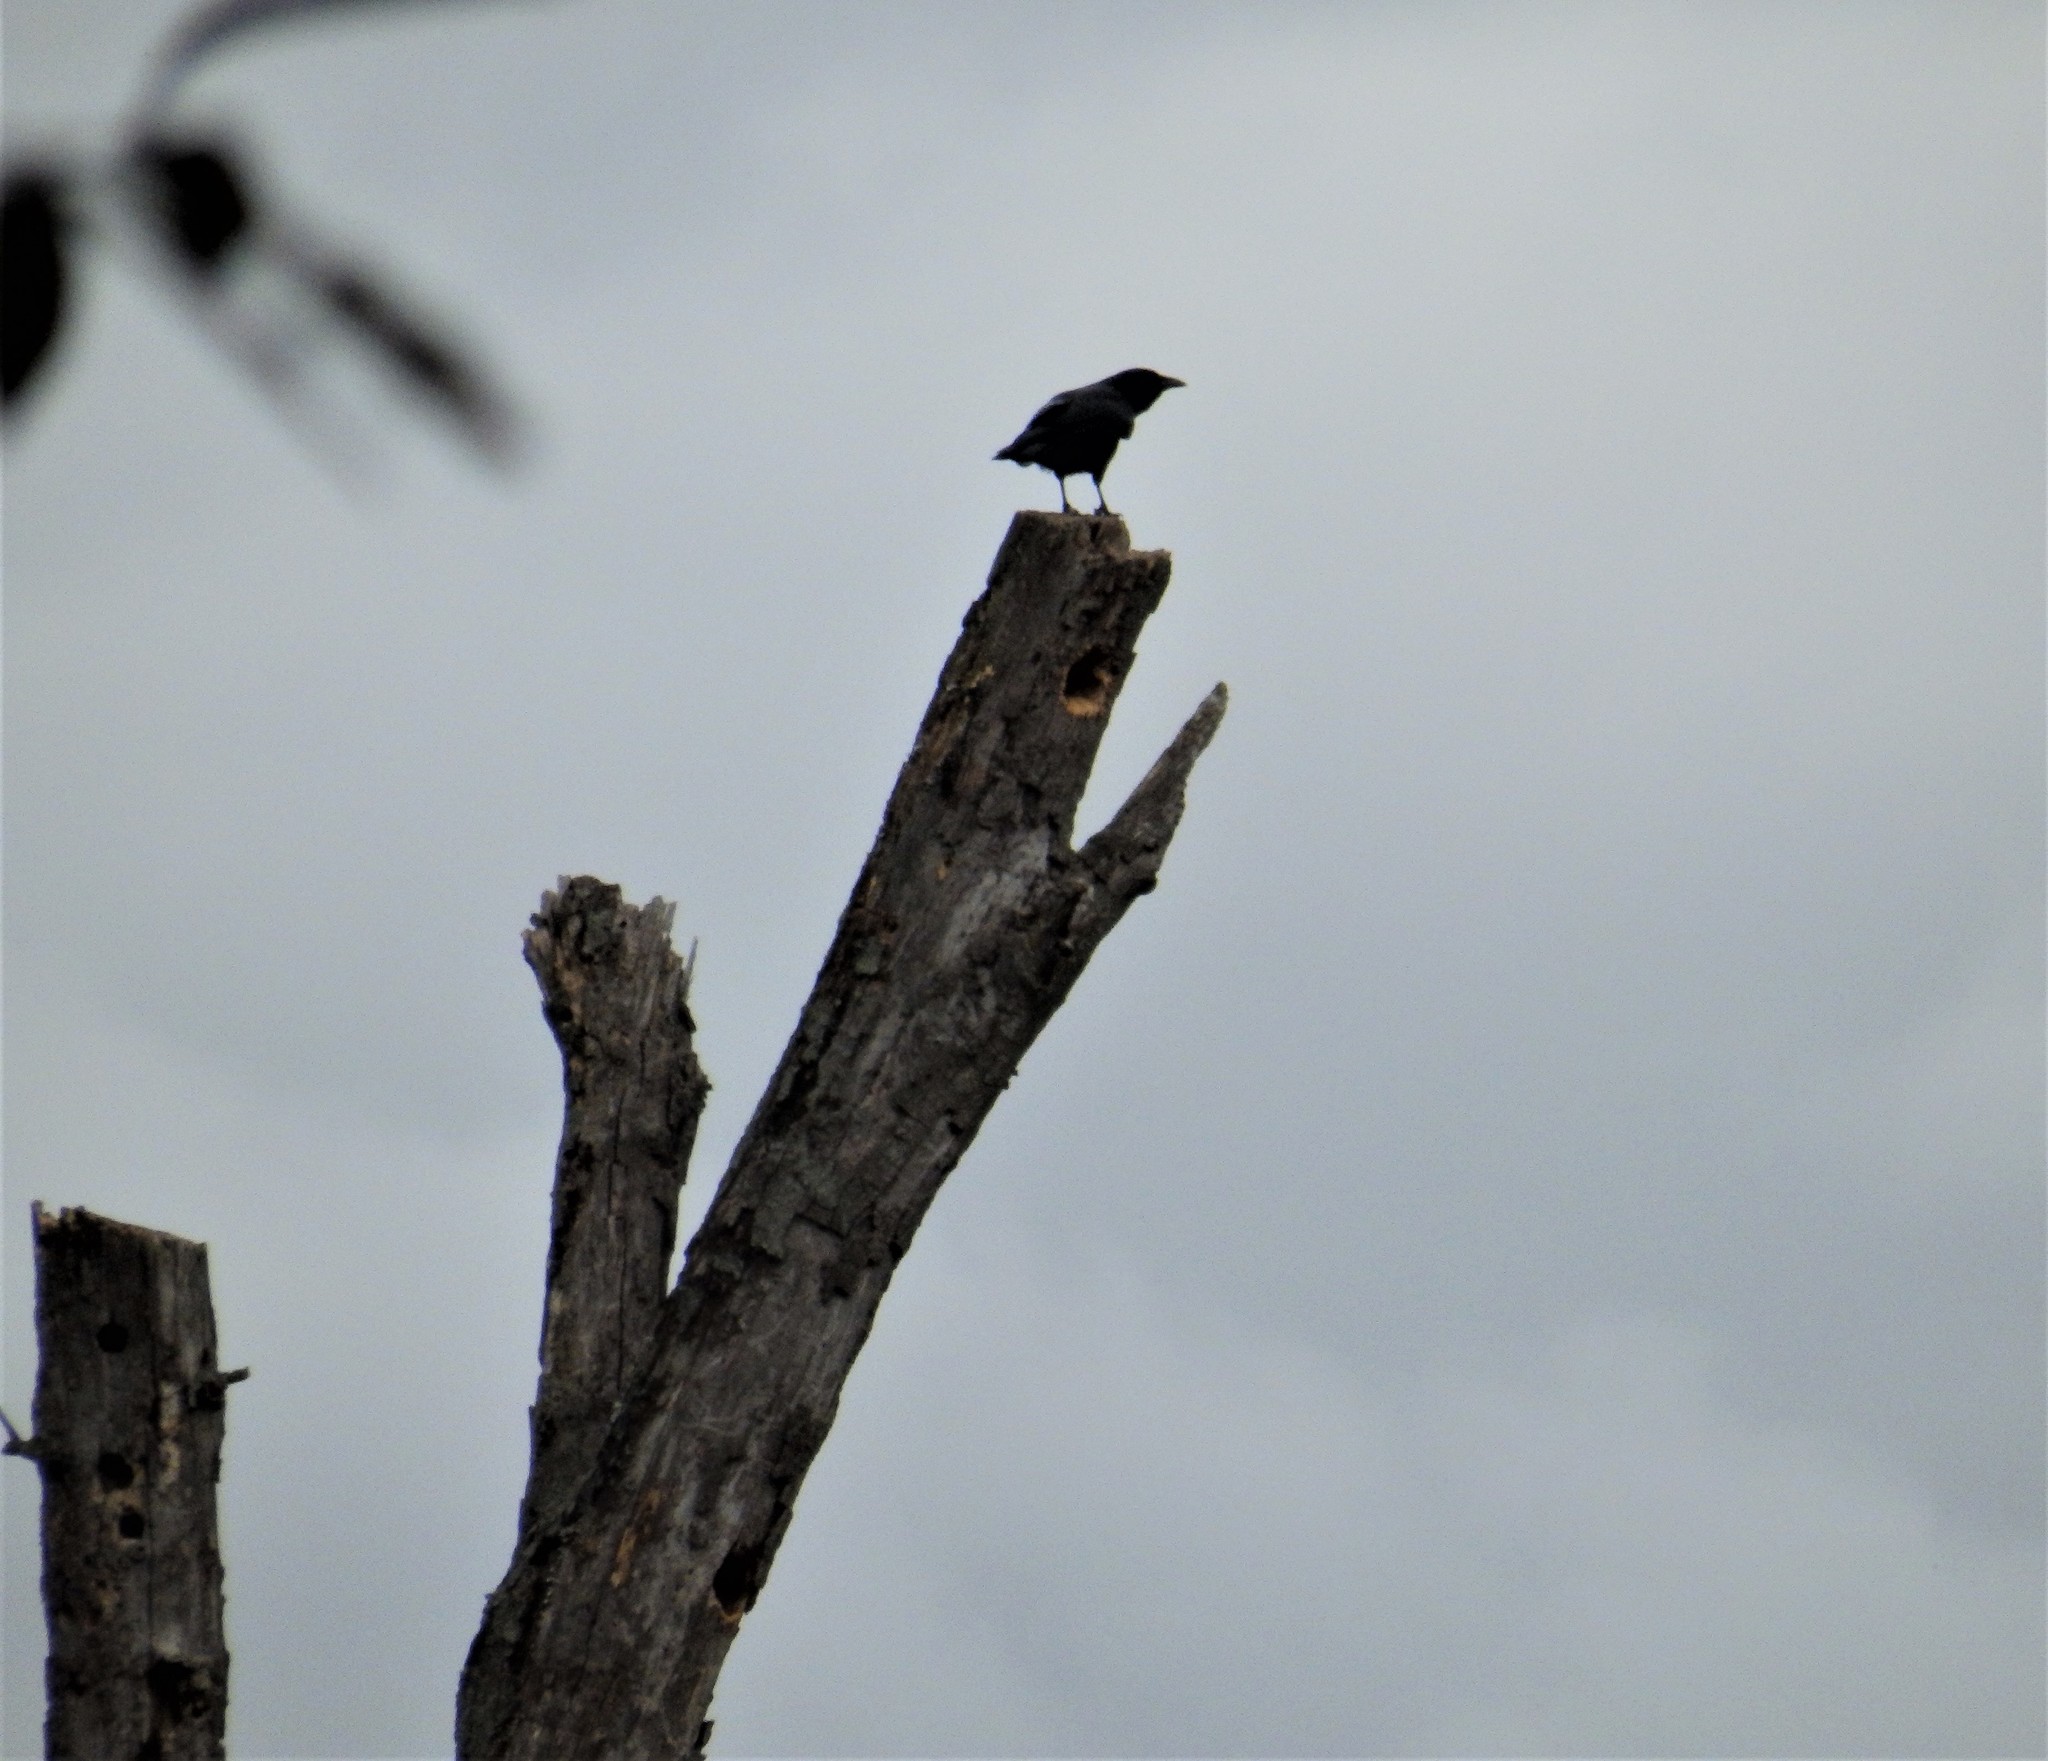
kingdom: Animalia
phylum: Chordata
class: Aves
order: Passeriformes
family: Corvidae
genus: Corvus
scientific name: Corvus brachyrhynchos
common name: American crow
